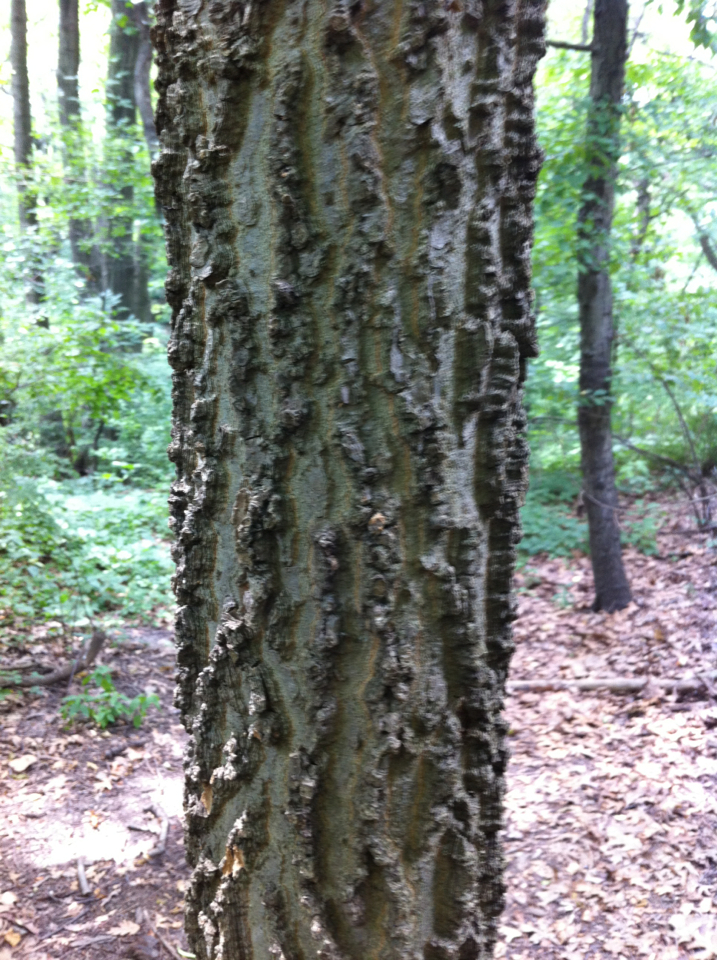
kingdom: Plantae
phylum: Tracheophyta
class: Magnoliopsida
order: Rosales
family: Cannabaceae
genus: Celtis
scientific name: Celtis occidentalis
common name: Common hackberry
